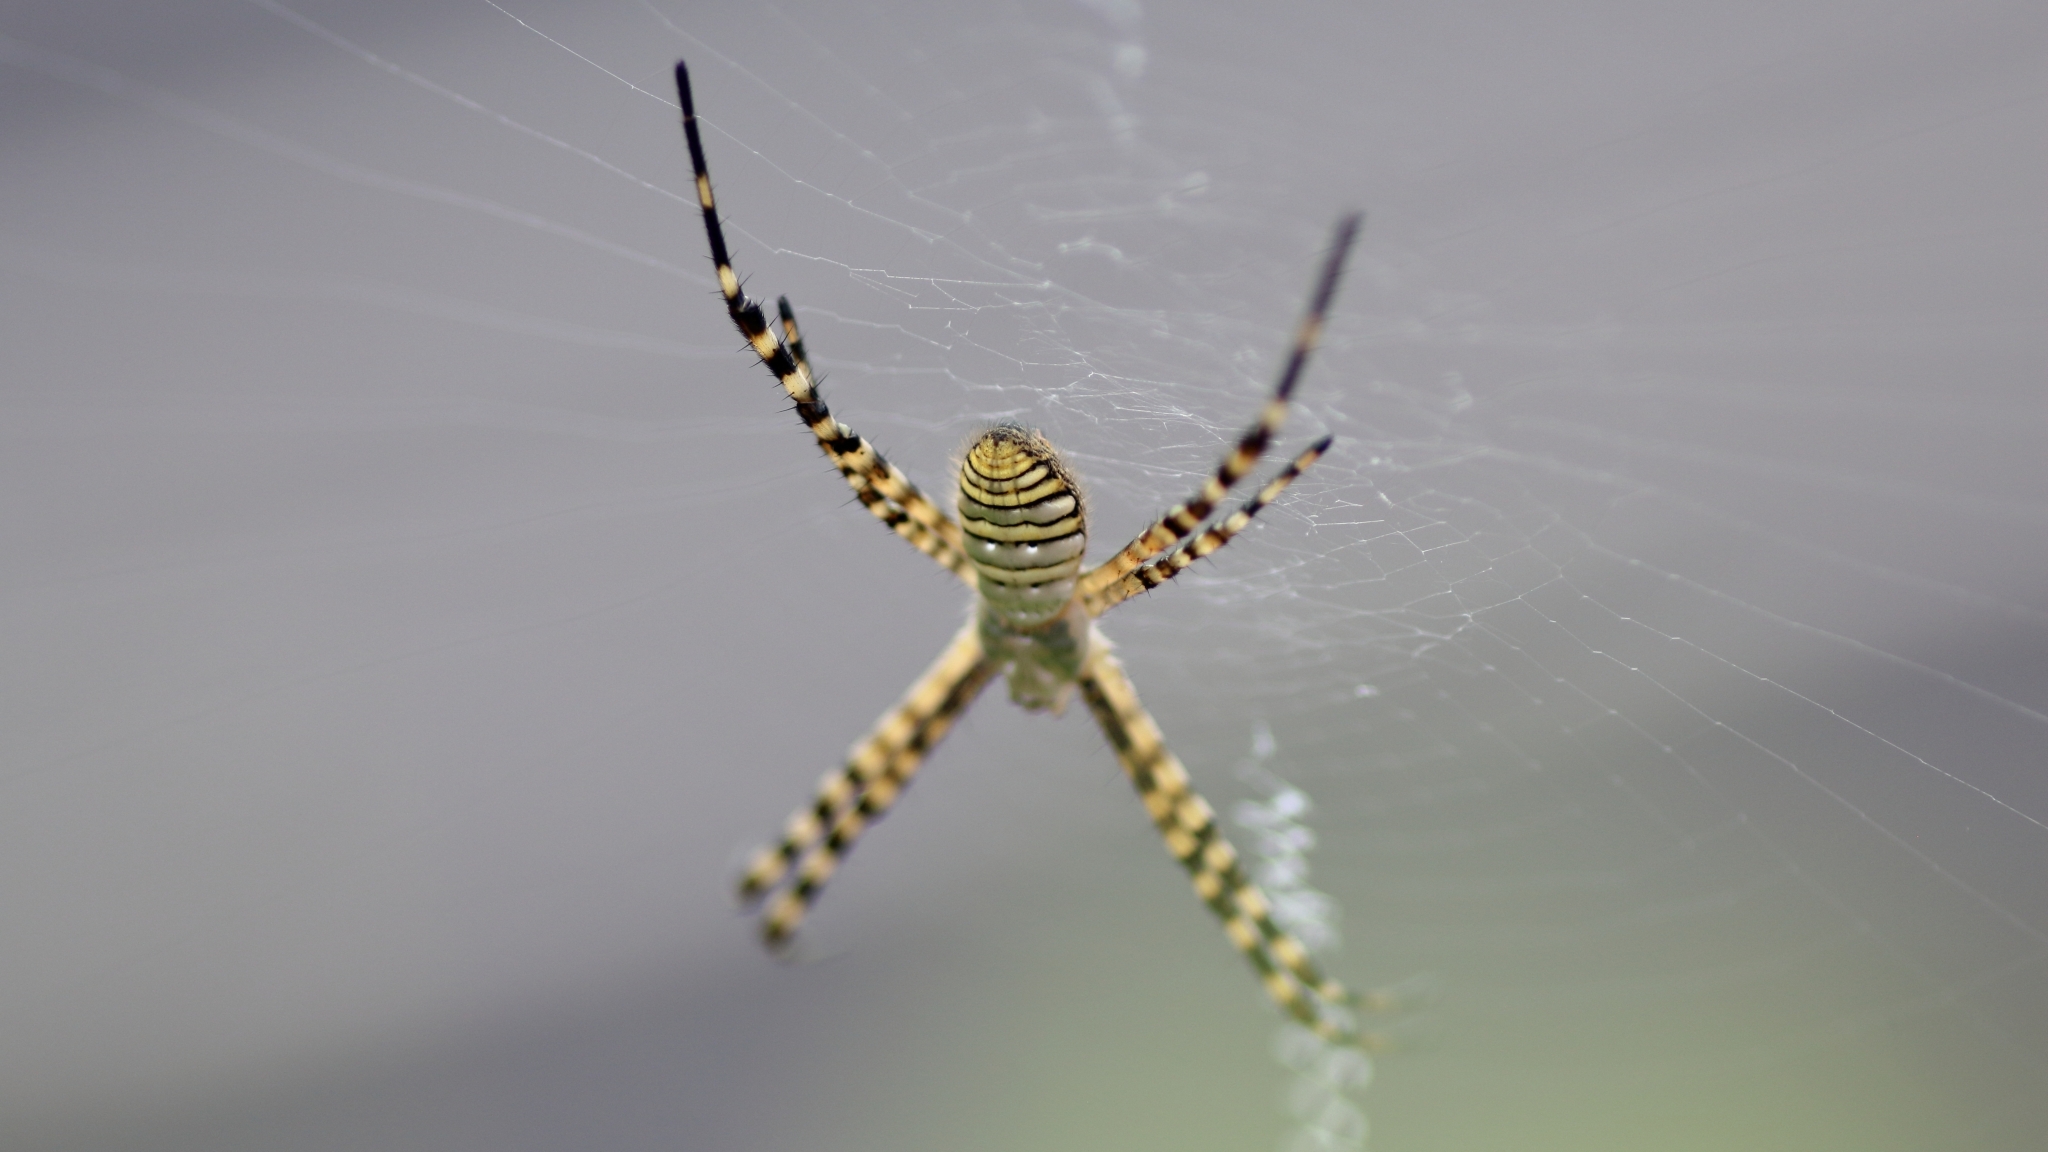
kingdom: Animalia
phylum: Arthropoda
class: Arachnida
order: Araneae
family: Araneidae
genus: Argiope
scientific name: Argiope trifasciata
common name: Banded garden spider
